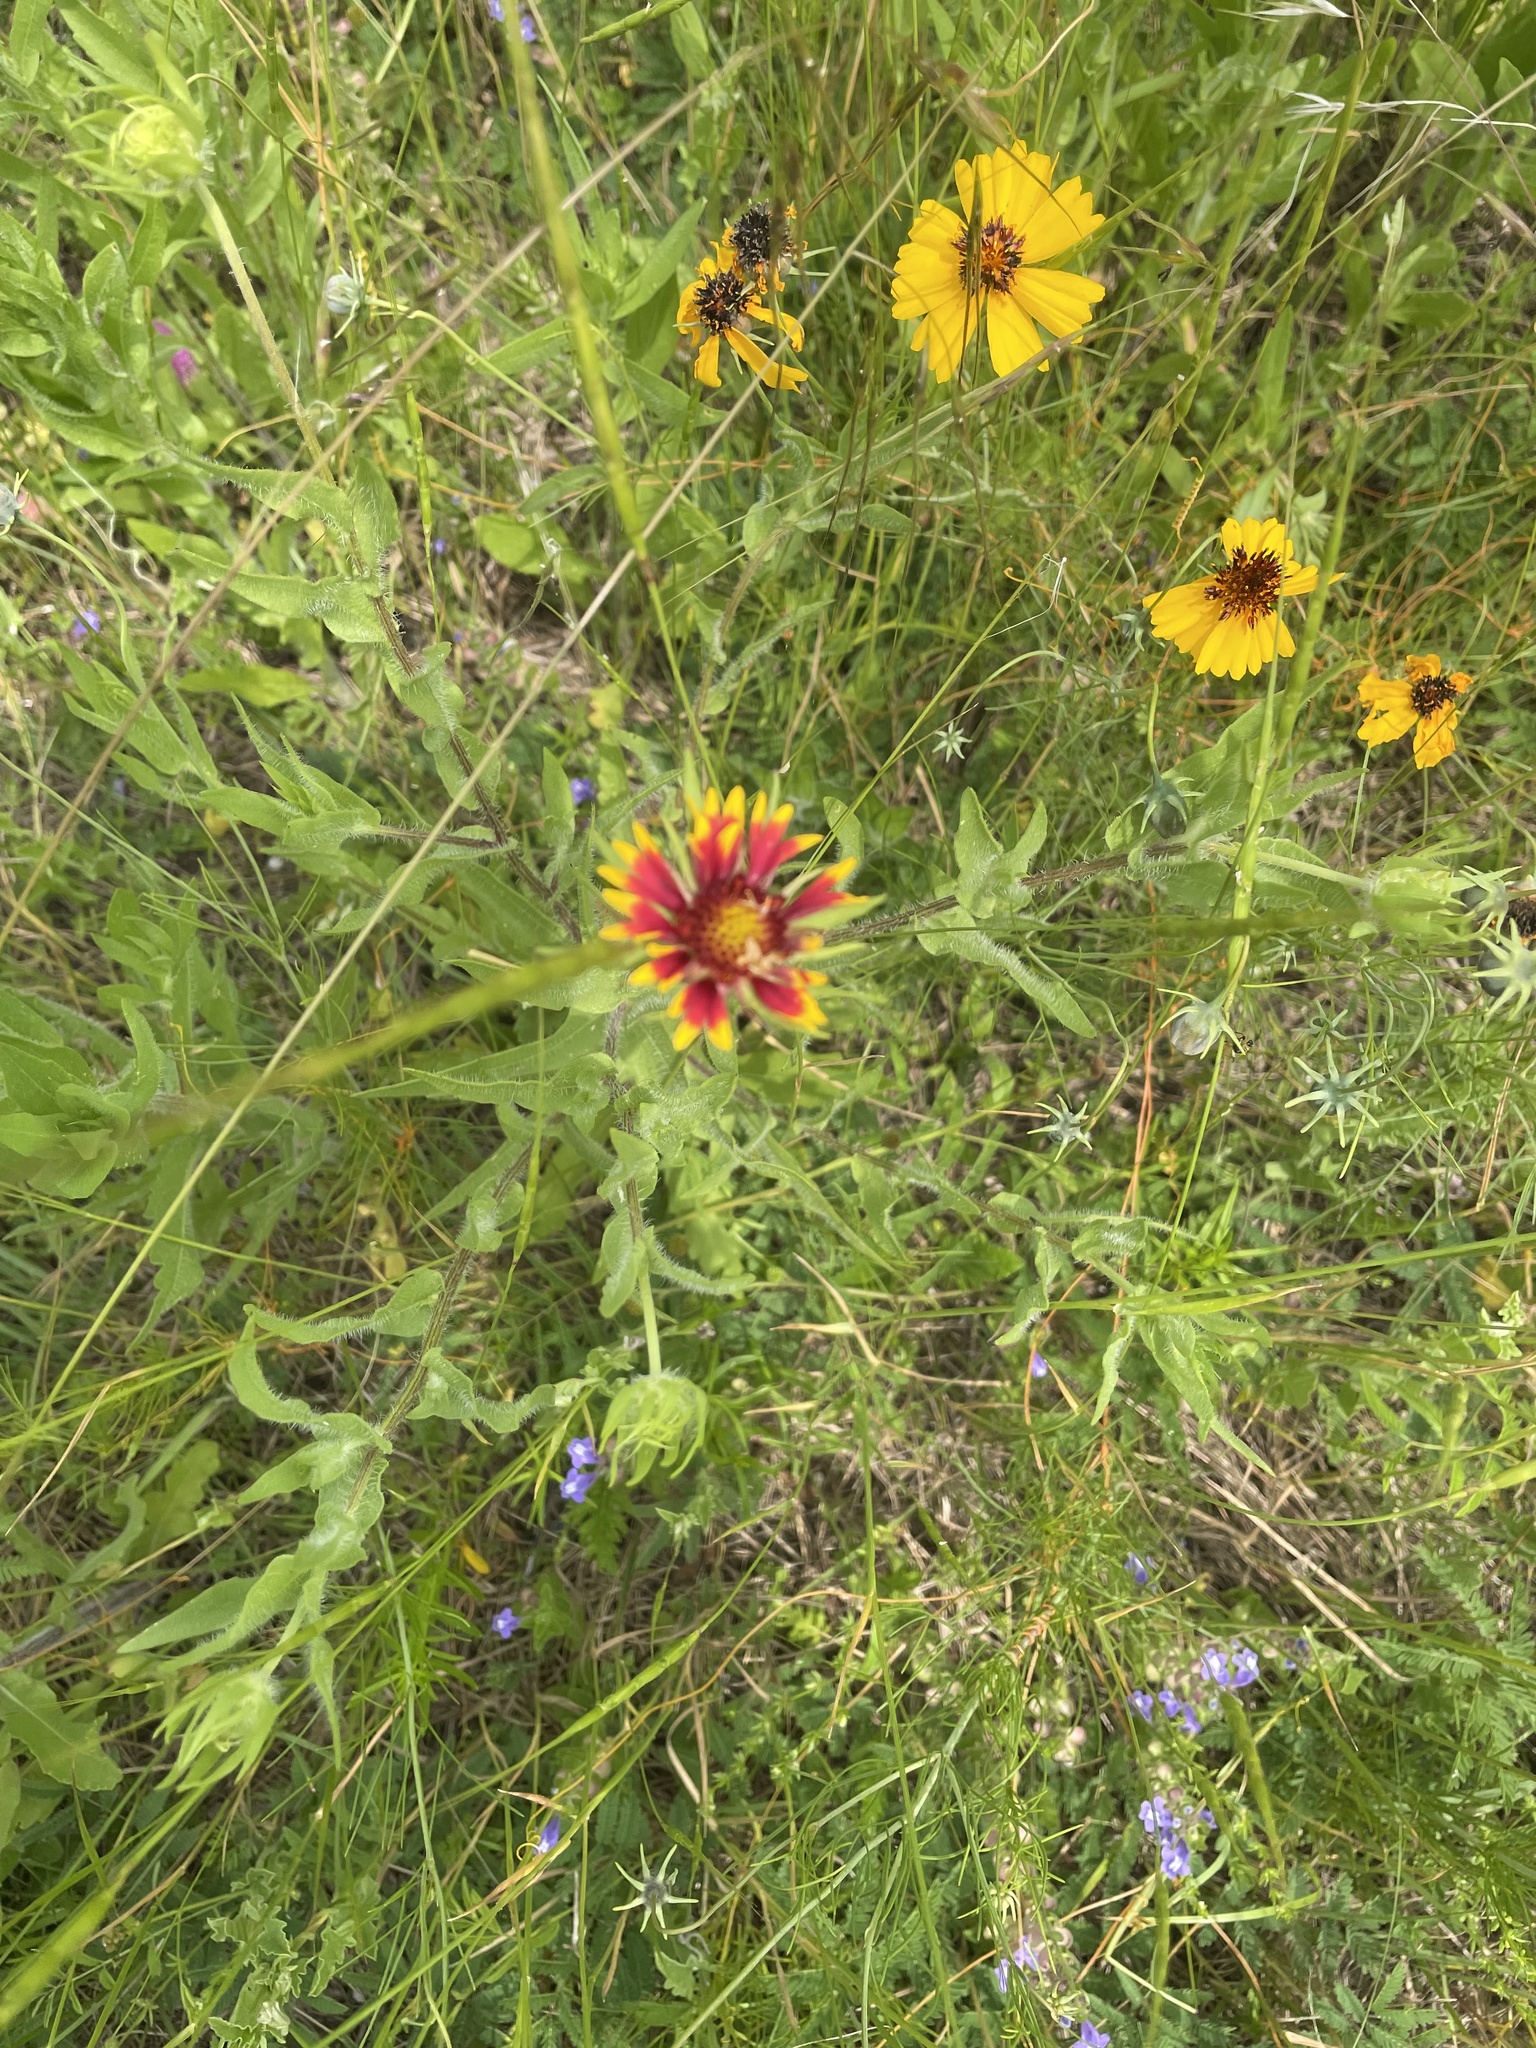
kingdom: Plantae
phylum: Tracheophyta
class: Magnoliopsida
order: Asterales
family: Asteraceae
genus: Gaillardia
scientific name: Gaillardia pulchella
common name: Firewheel
